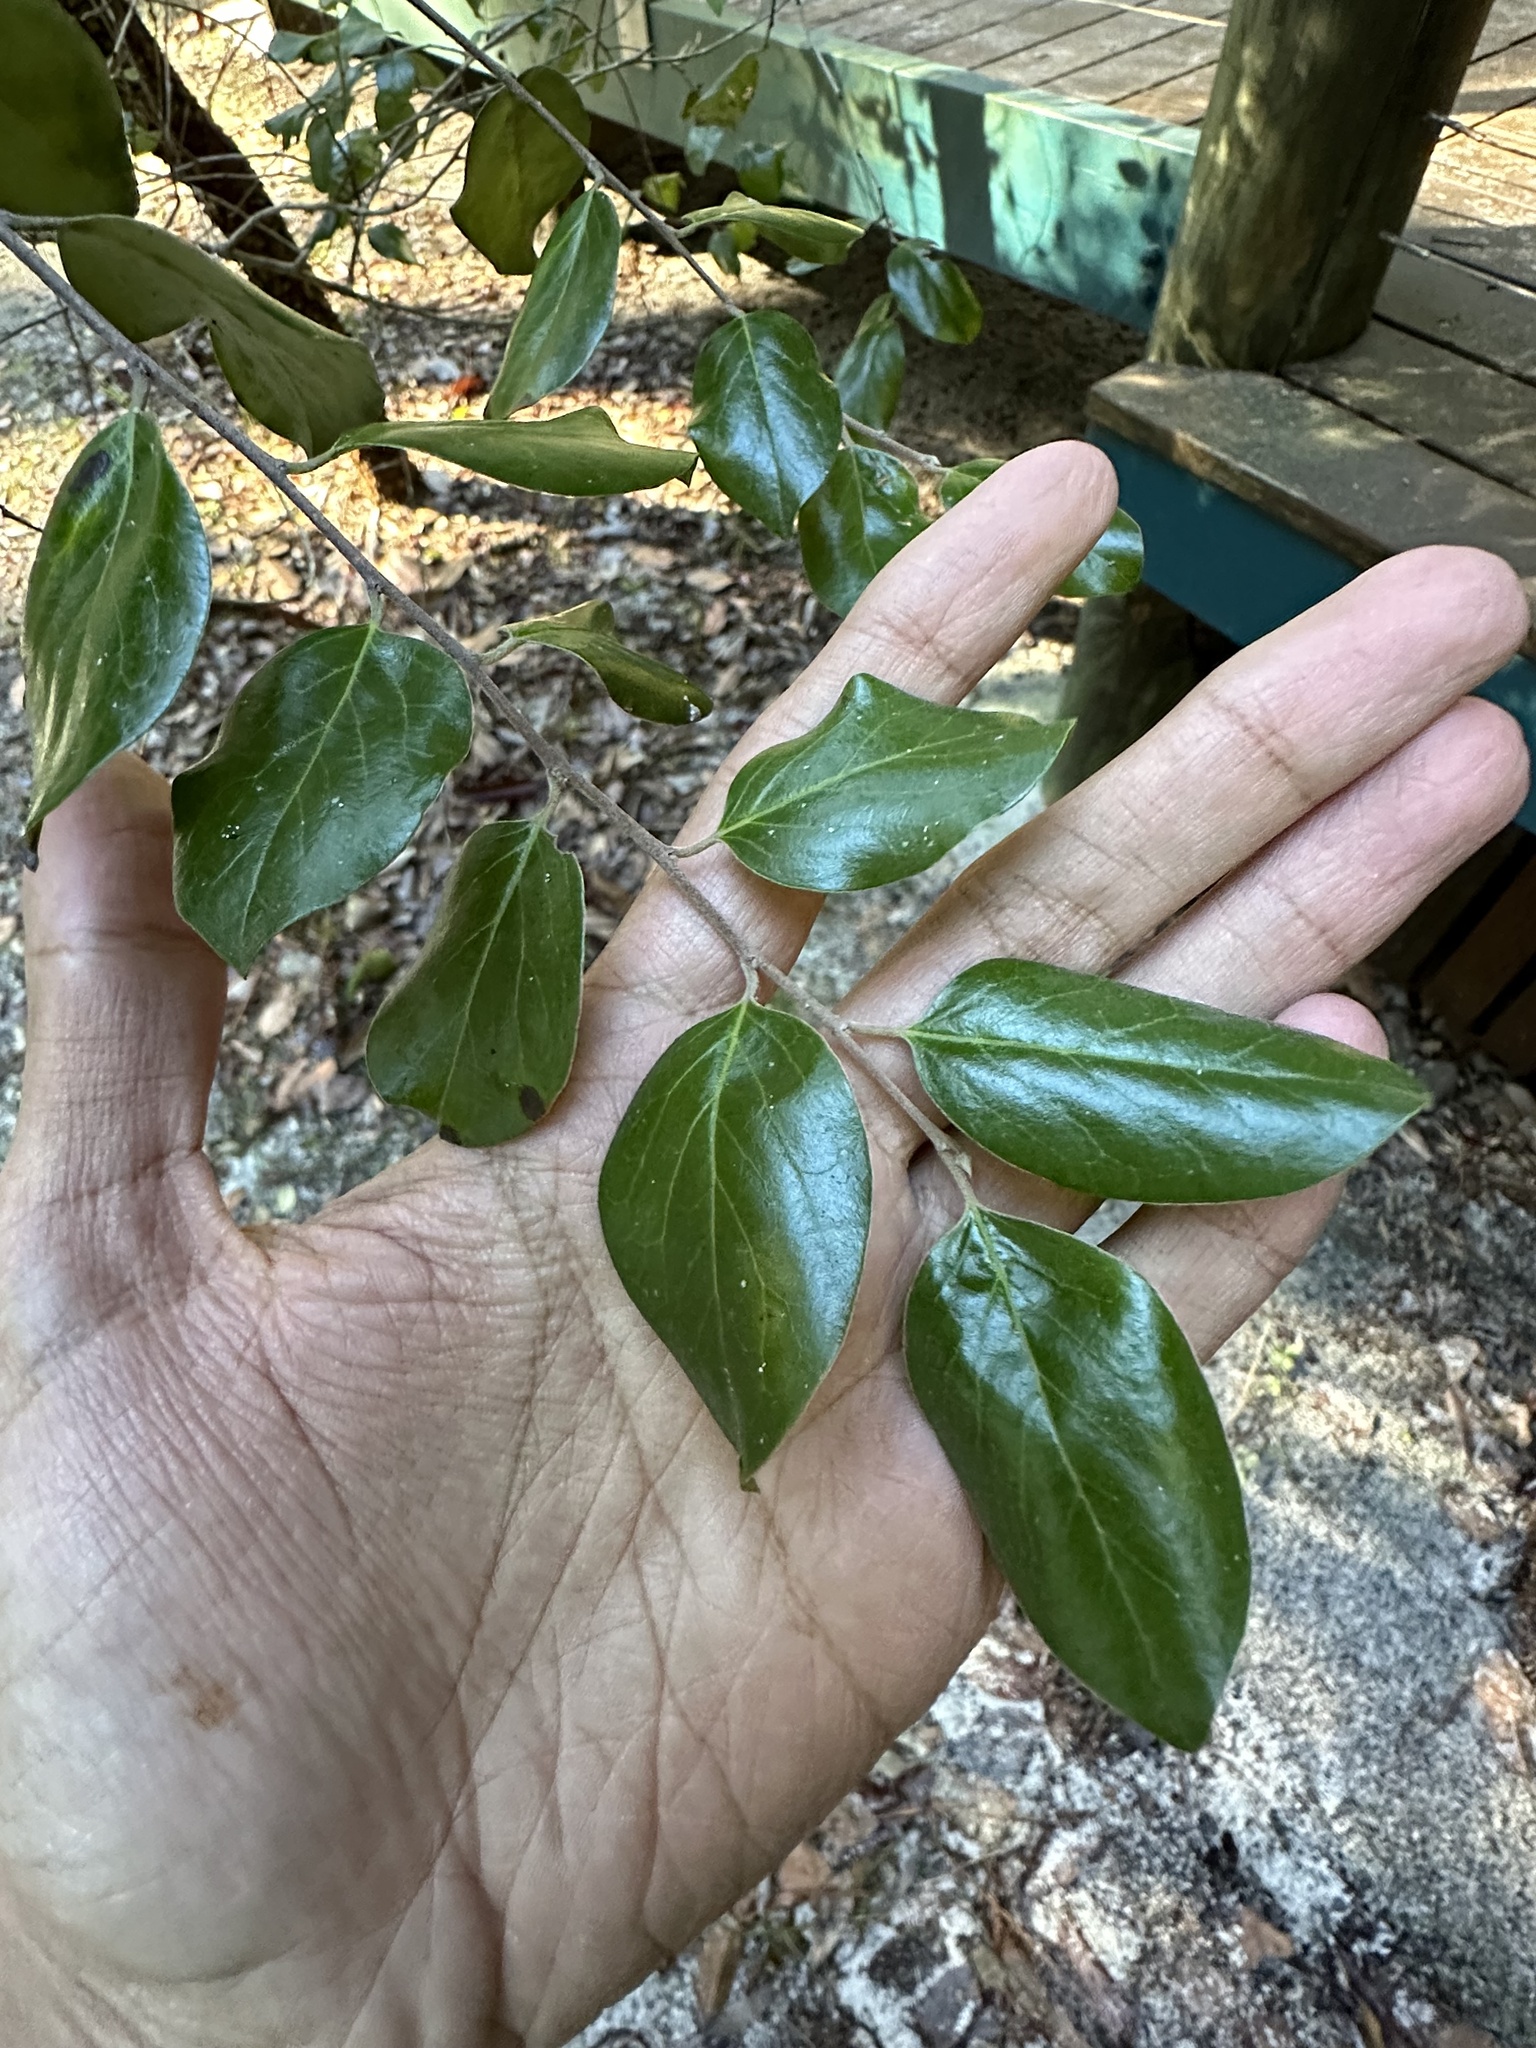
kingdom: Plantae
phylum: Tracheophyta
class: Magnoliopsida
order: Malpighiales
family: Picrodendraceae
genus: Petalostigma
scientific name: Petalostigma pubescens
